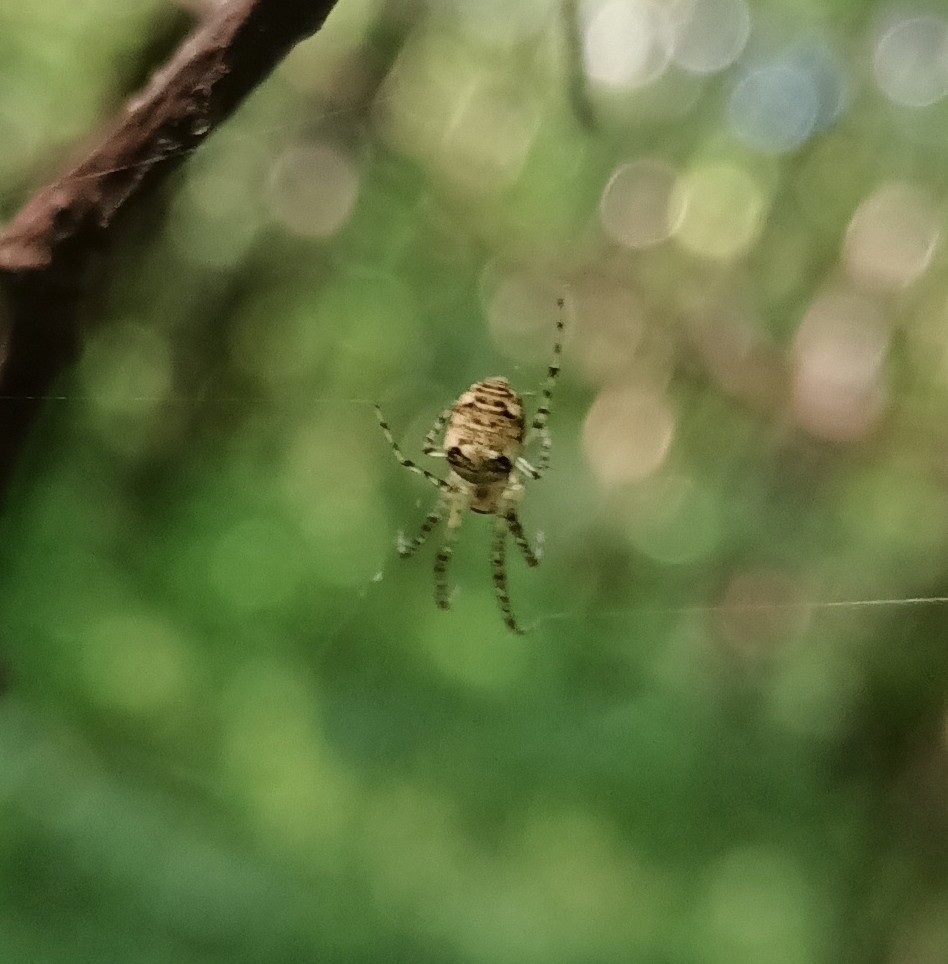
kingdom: Animalia
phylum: Arthropoda
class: Arachnida
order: Araneae
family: Tetragnathidae
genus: Metellina
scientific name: Metellina
